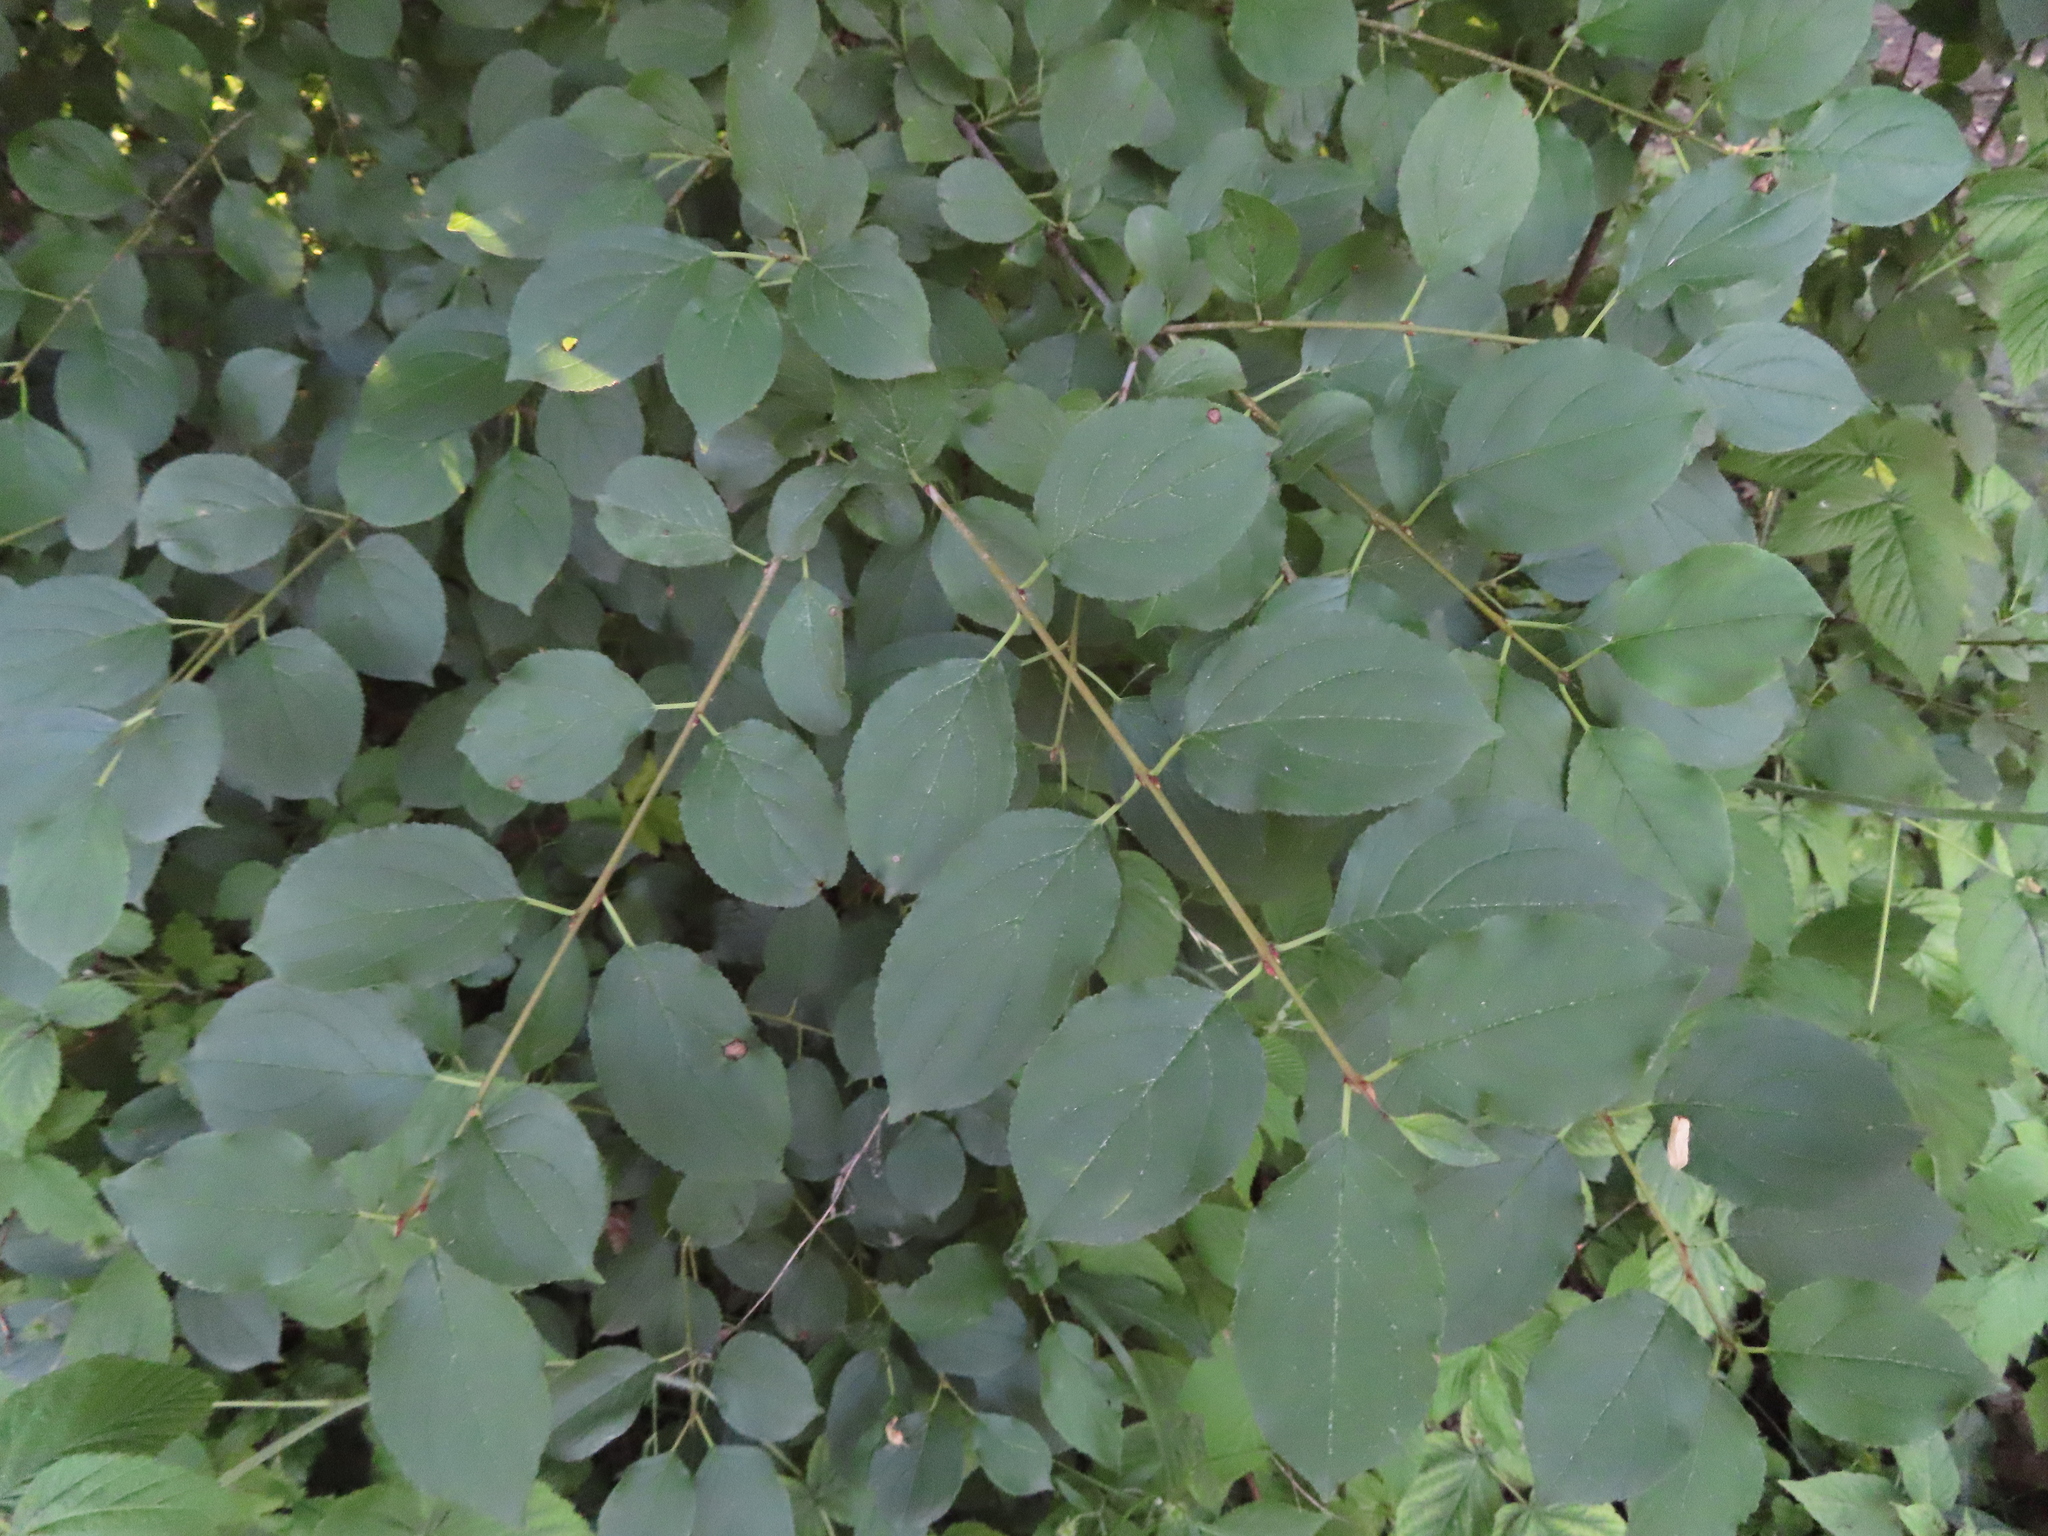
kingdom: Plantae
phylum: Tracheophyta
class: Magnoliopsida
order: Rosales
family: Rhamnaceae
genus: Rhamnus
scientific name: Rhamnus cathartica
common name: Common buckthorn
